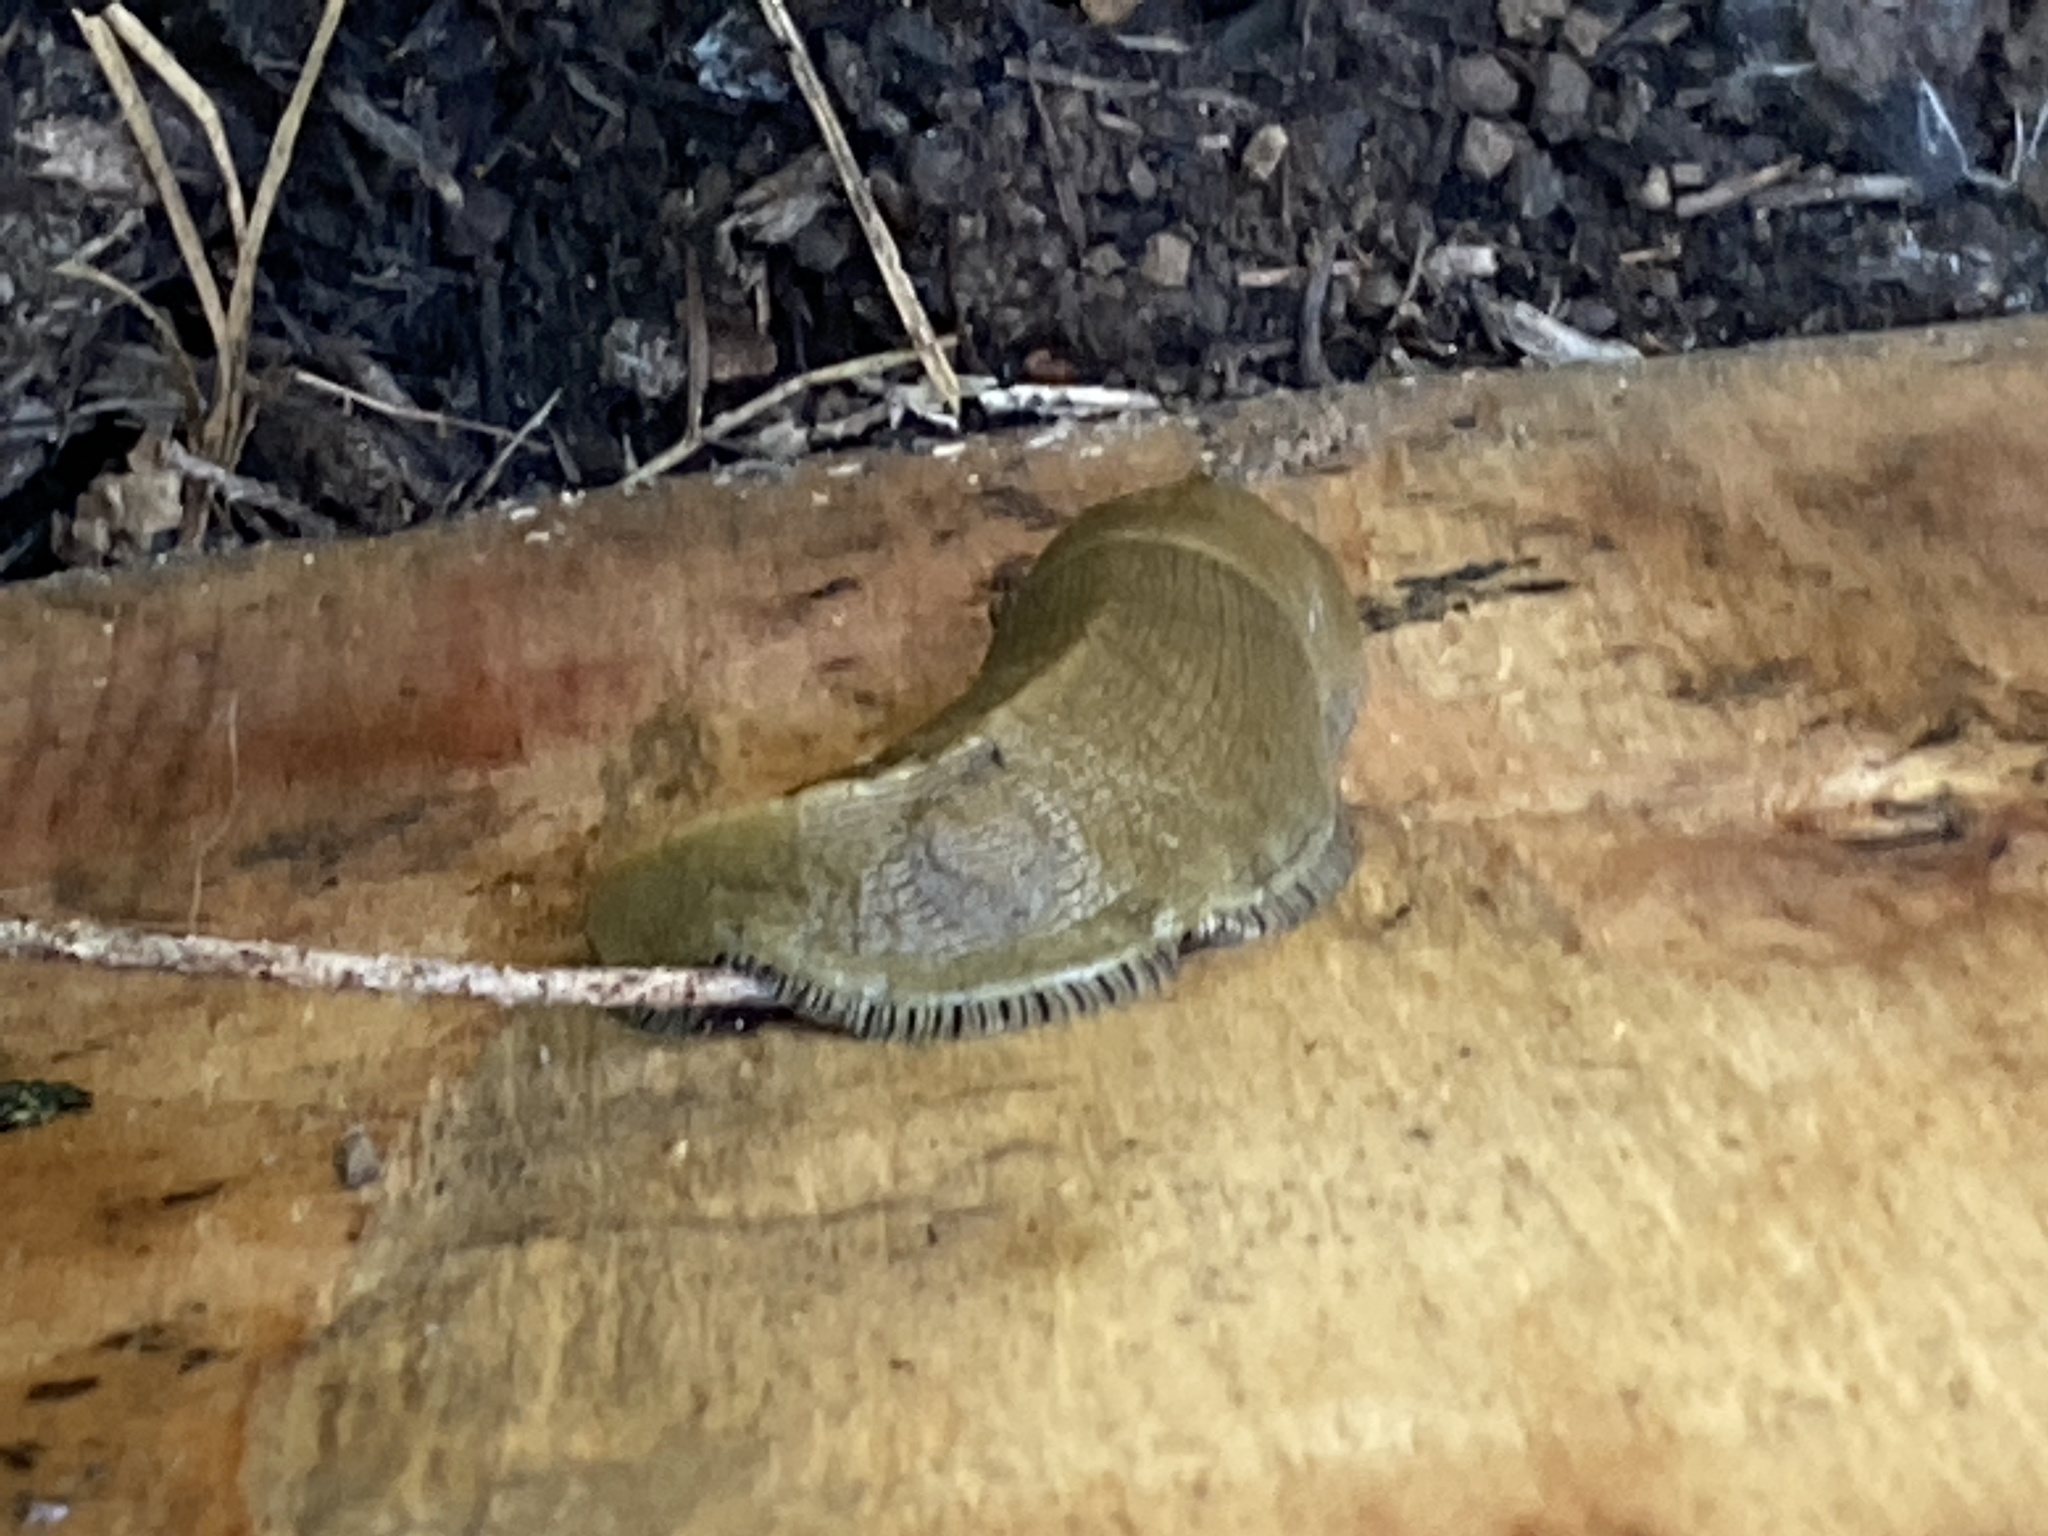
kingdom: Animalia
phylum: Mollusca
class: Gastropoda
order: Stylommatophora
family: Ariolimacidae
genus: Ariolimax
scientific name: Ariolimax buttoni
